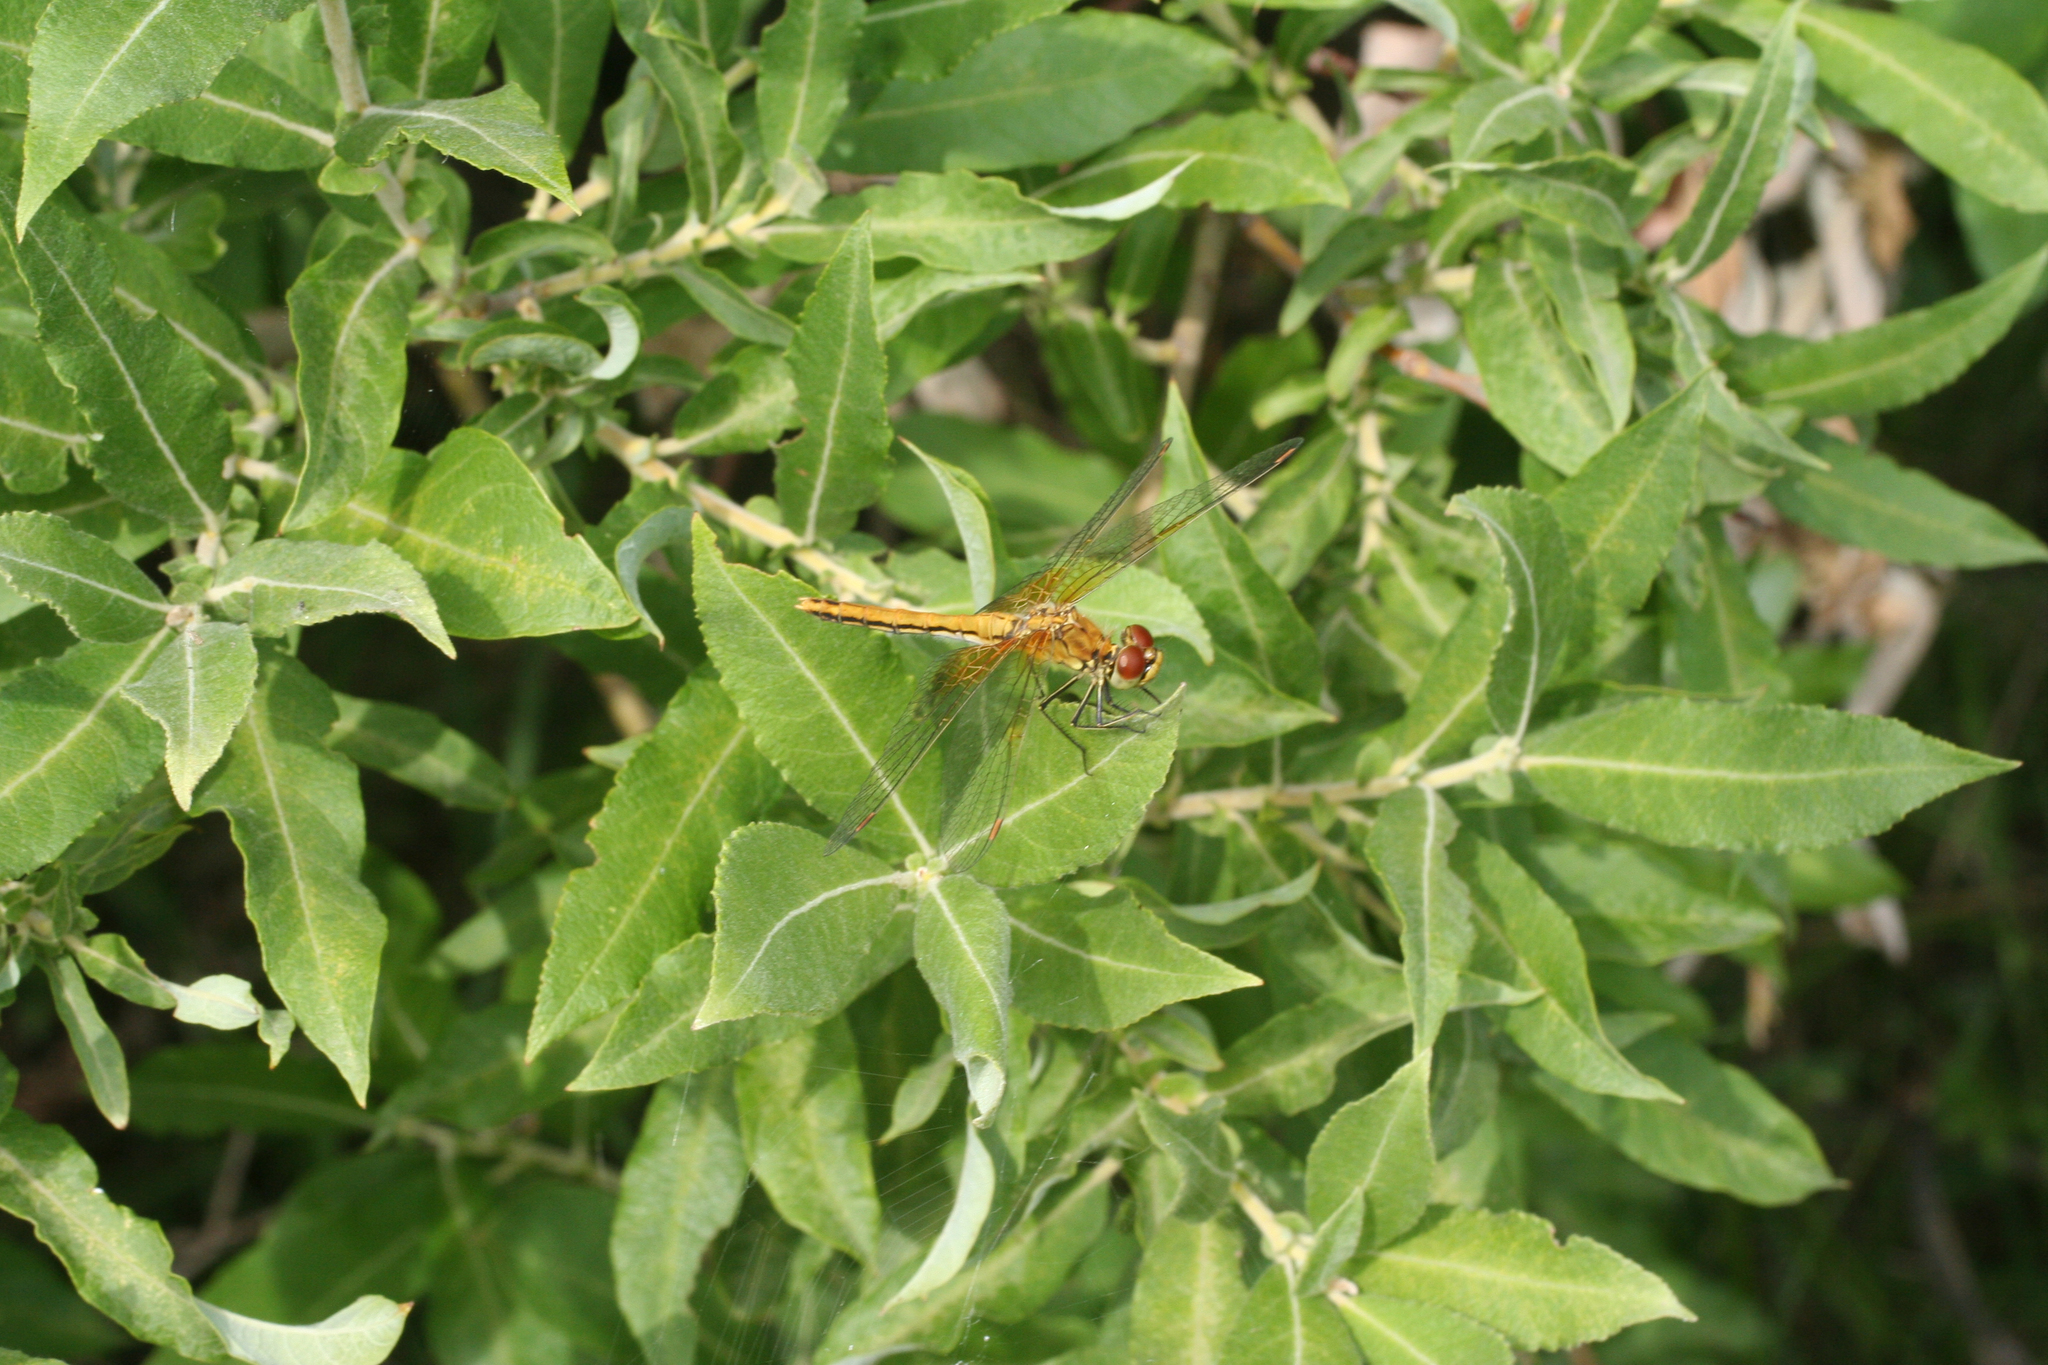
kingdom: Plantae
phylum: Tracheophyta
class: Magnoliopsida
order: Malpighiales
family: Salicaceae
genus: Salix
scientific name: Salix cinerea
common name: Common sallow
